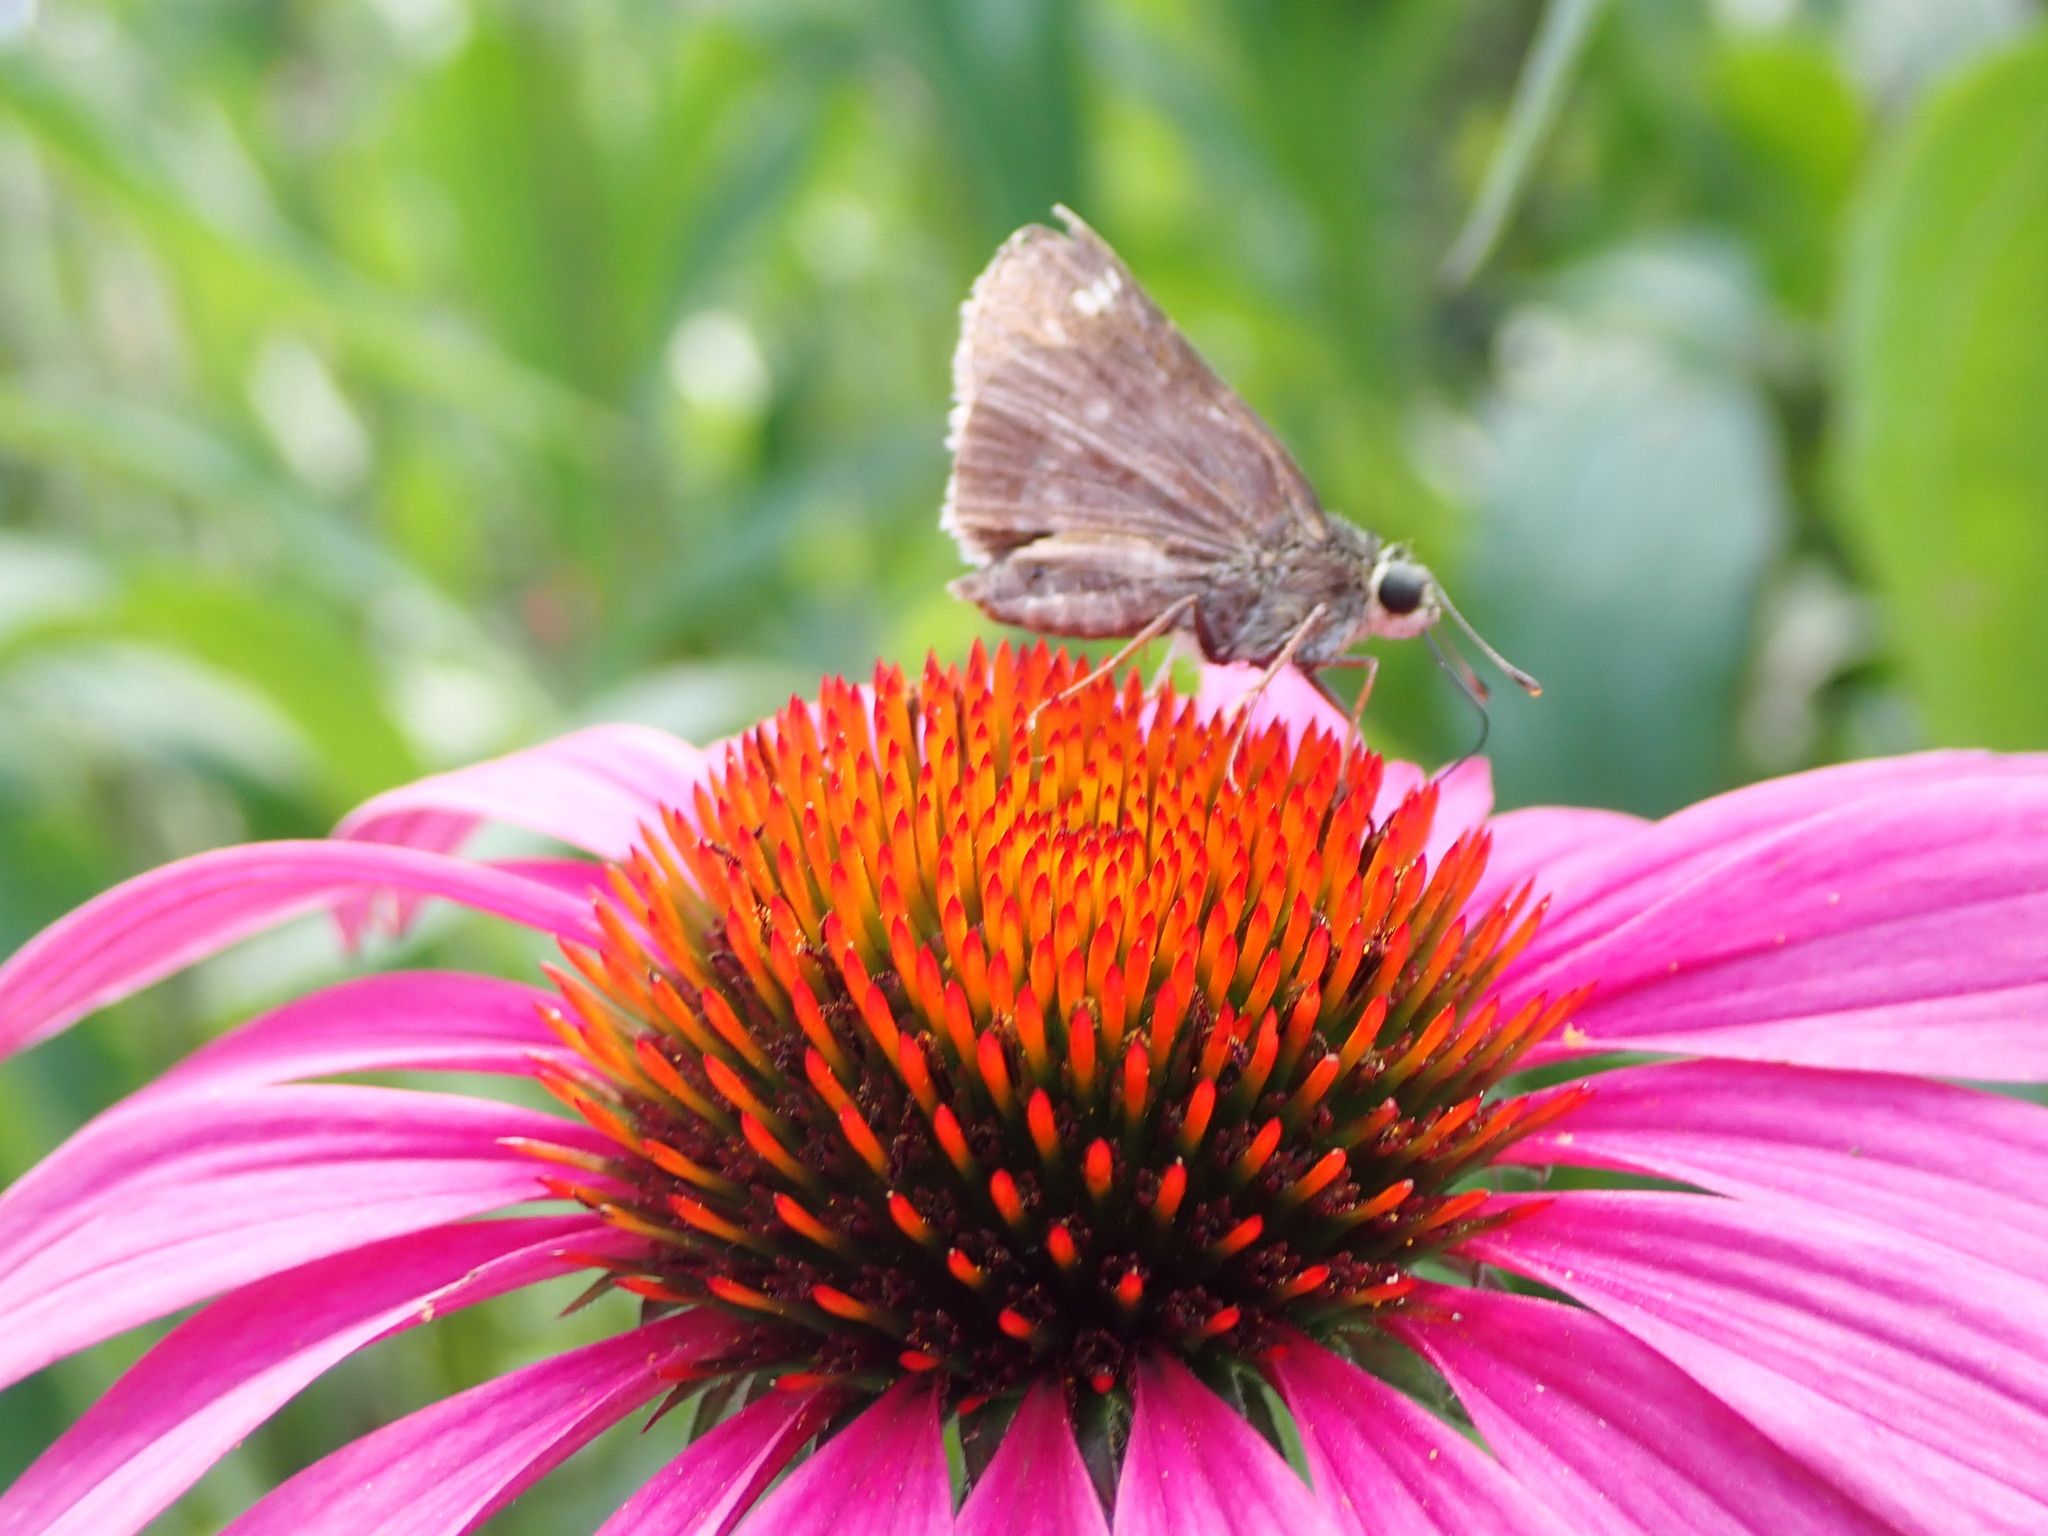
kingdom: Animalia
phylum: Arthropoda
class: Insecta
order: Lepidoptera
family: Hesperiidae
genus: Vernia
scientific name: Vernia verna
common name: Little glassywing
